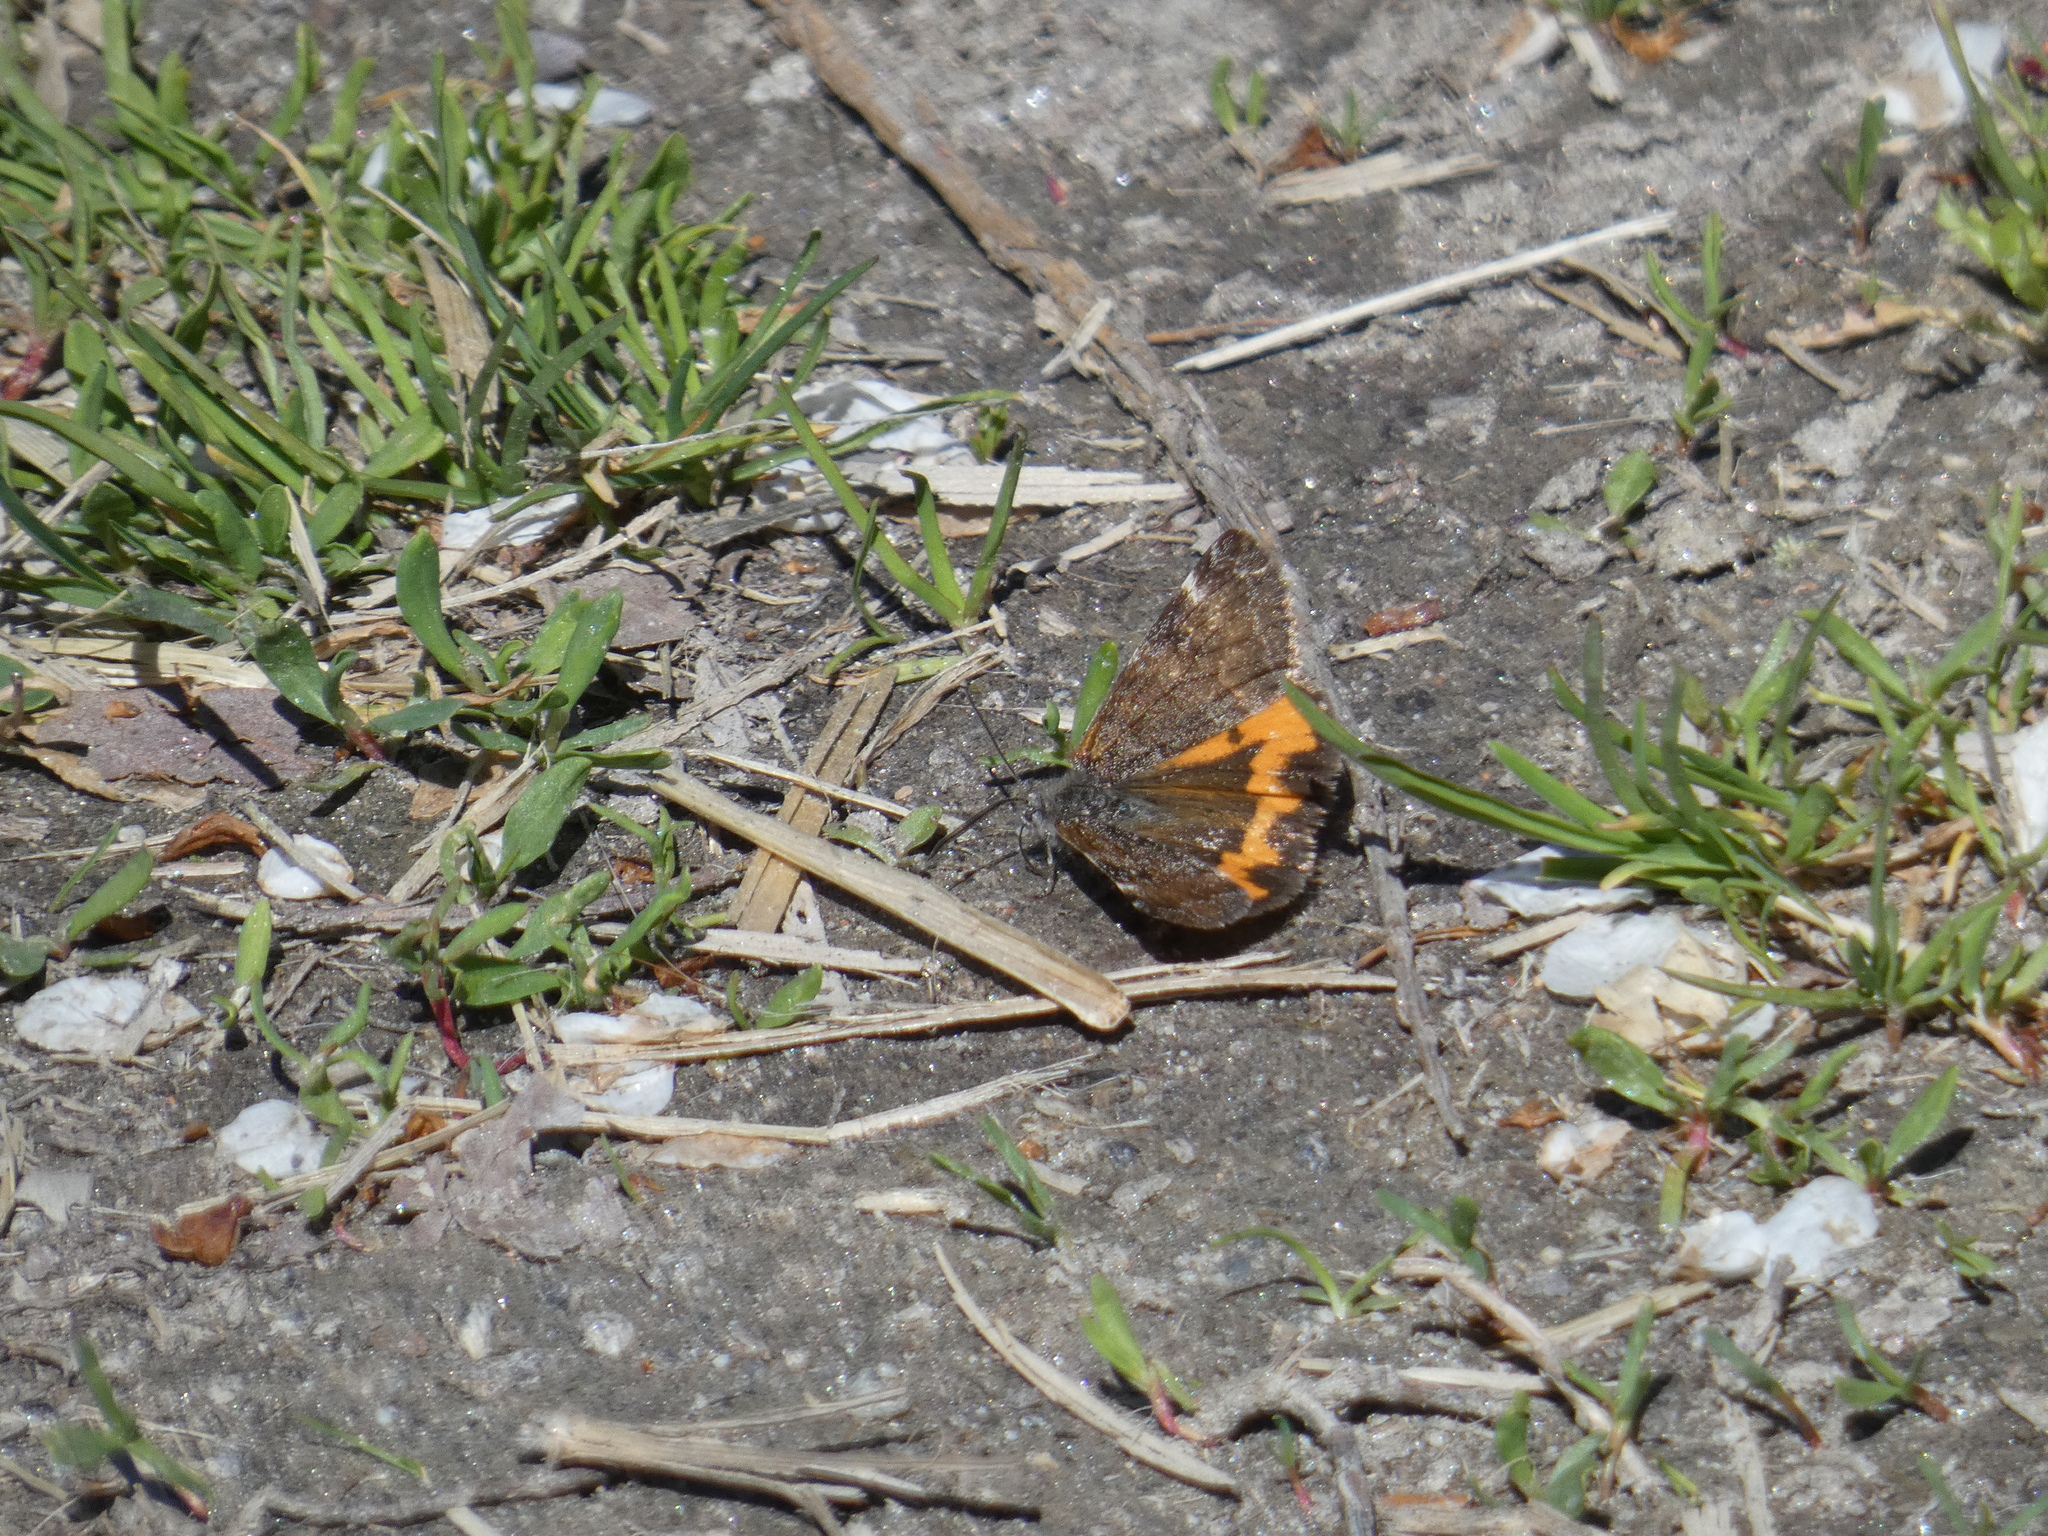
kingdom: Animalia
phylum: Arthropoda
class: Insecta
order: Lepidoptera
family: Geometridae
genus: Archiearis
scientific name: Archiearis notha
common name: Light orange underwing
